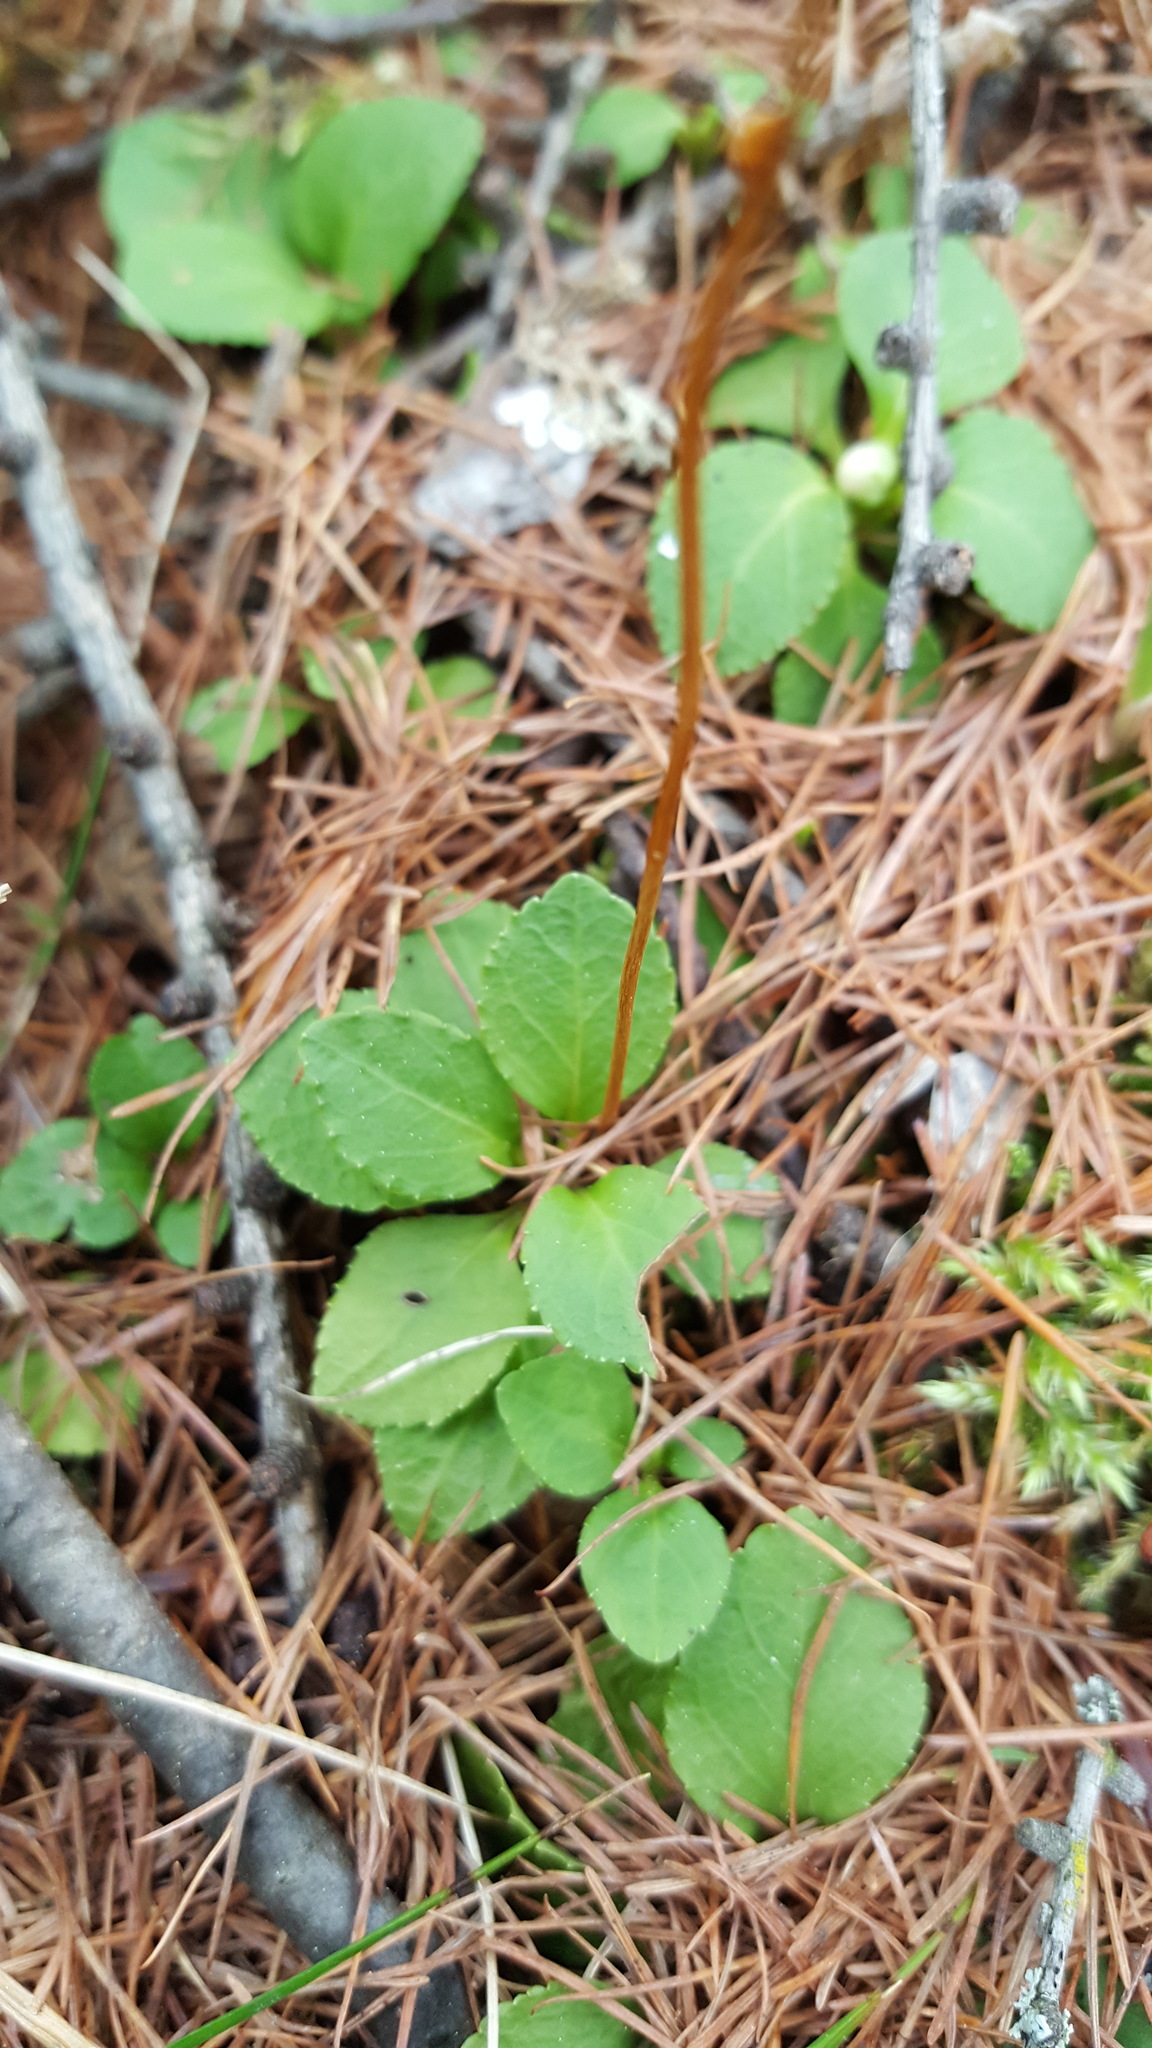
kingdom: Plantae
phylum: Tracheophyta
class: Magnoliopsida
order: Ericales
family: Ericaceae
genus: Moneses
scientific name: Moneses uniflora
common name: One-flowered wintergreen
